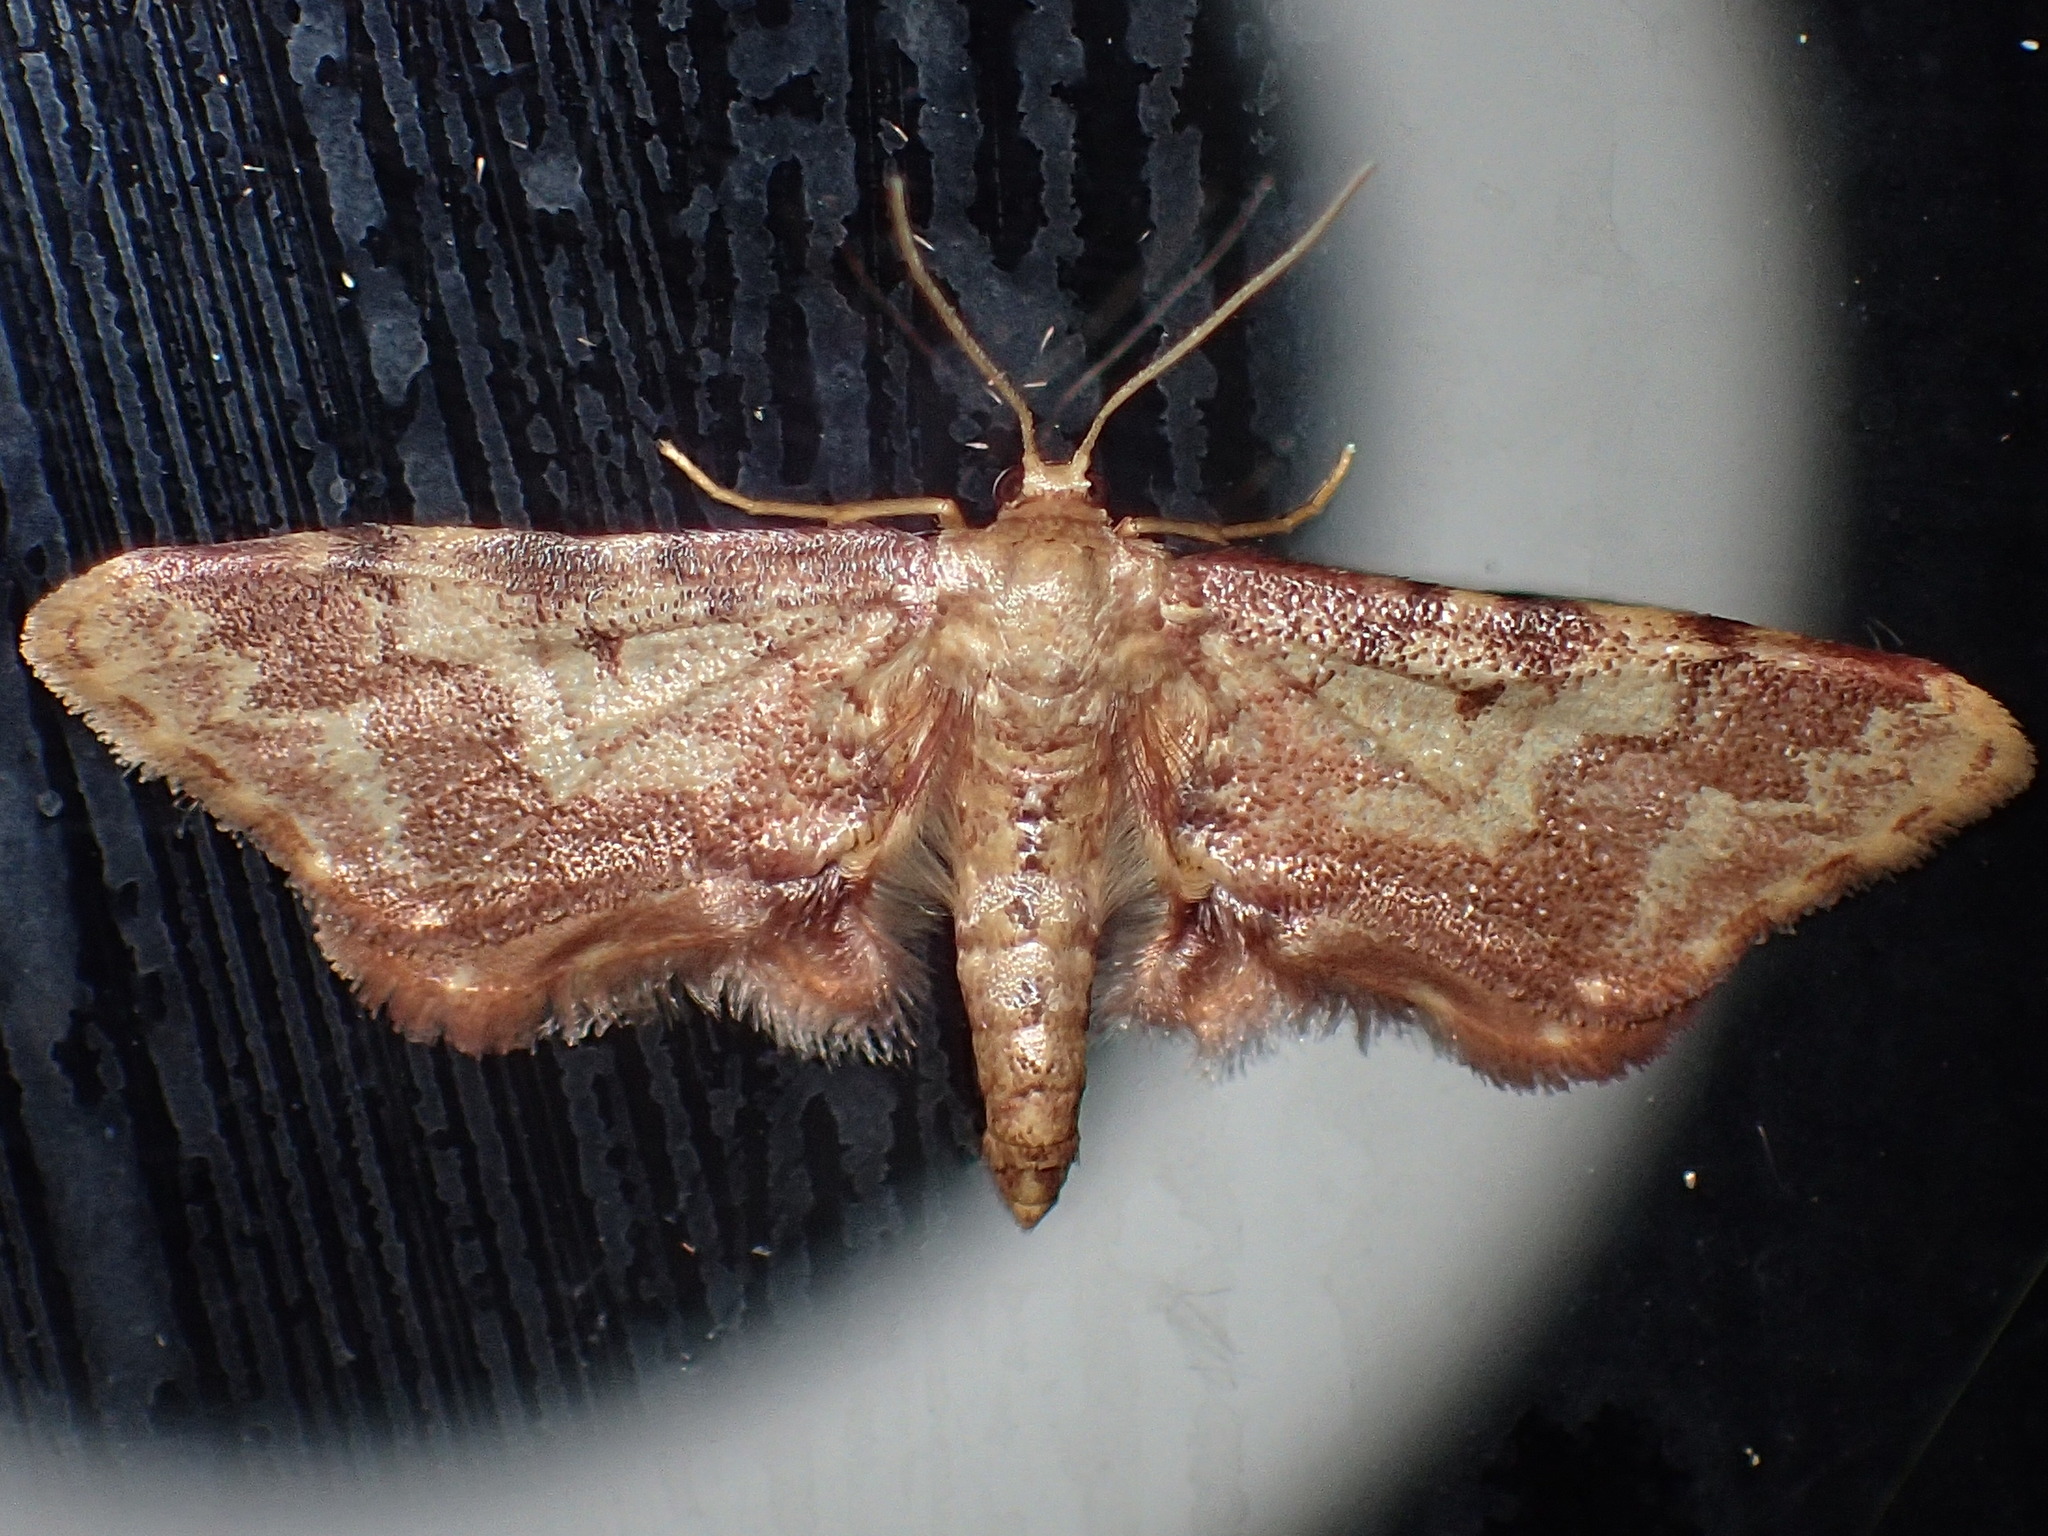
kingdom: Animalia
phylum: Arthropoda
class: Insecta
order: Lepidoptera
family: Geometridae
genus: Idaea
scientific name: Idaea furciferata
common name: Notch-winged wave
